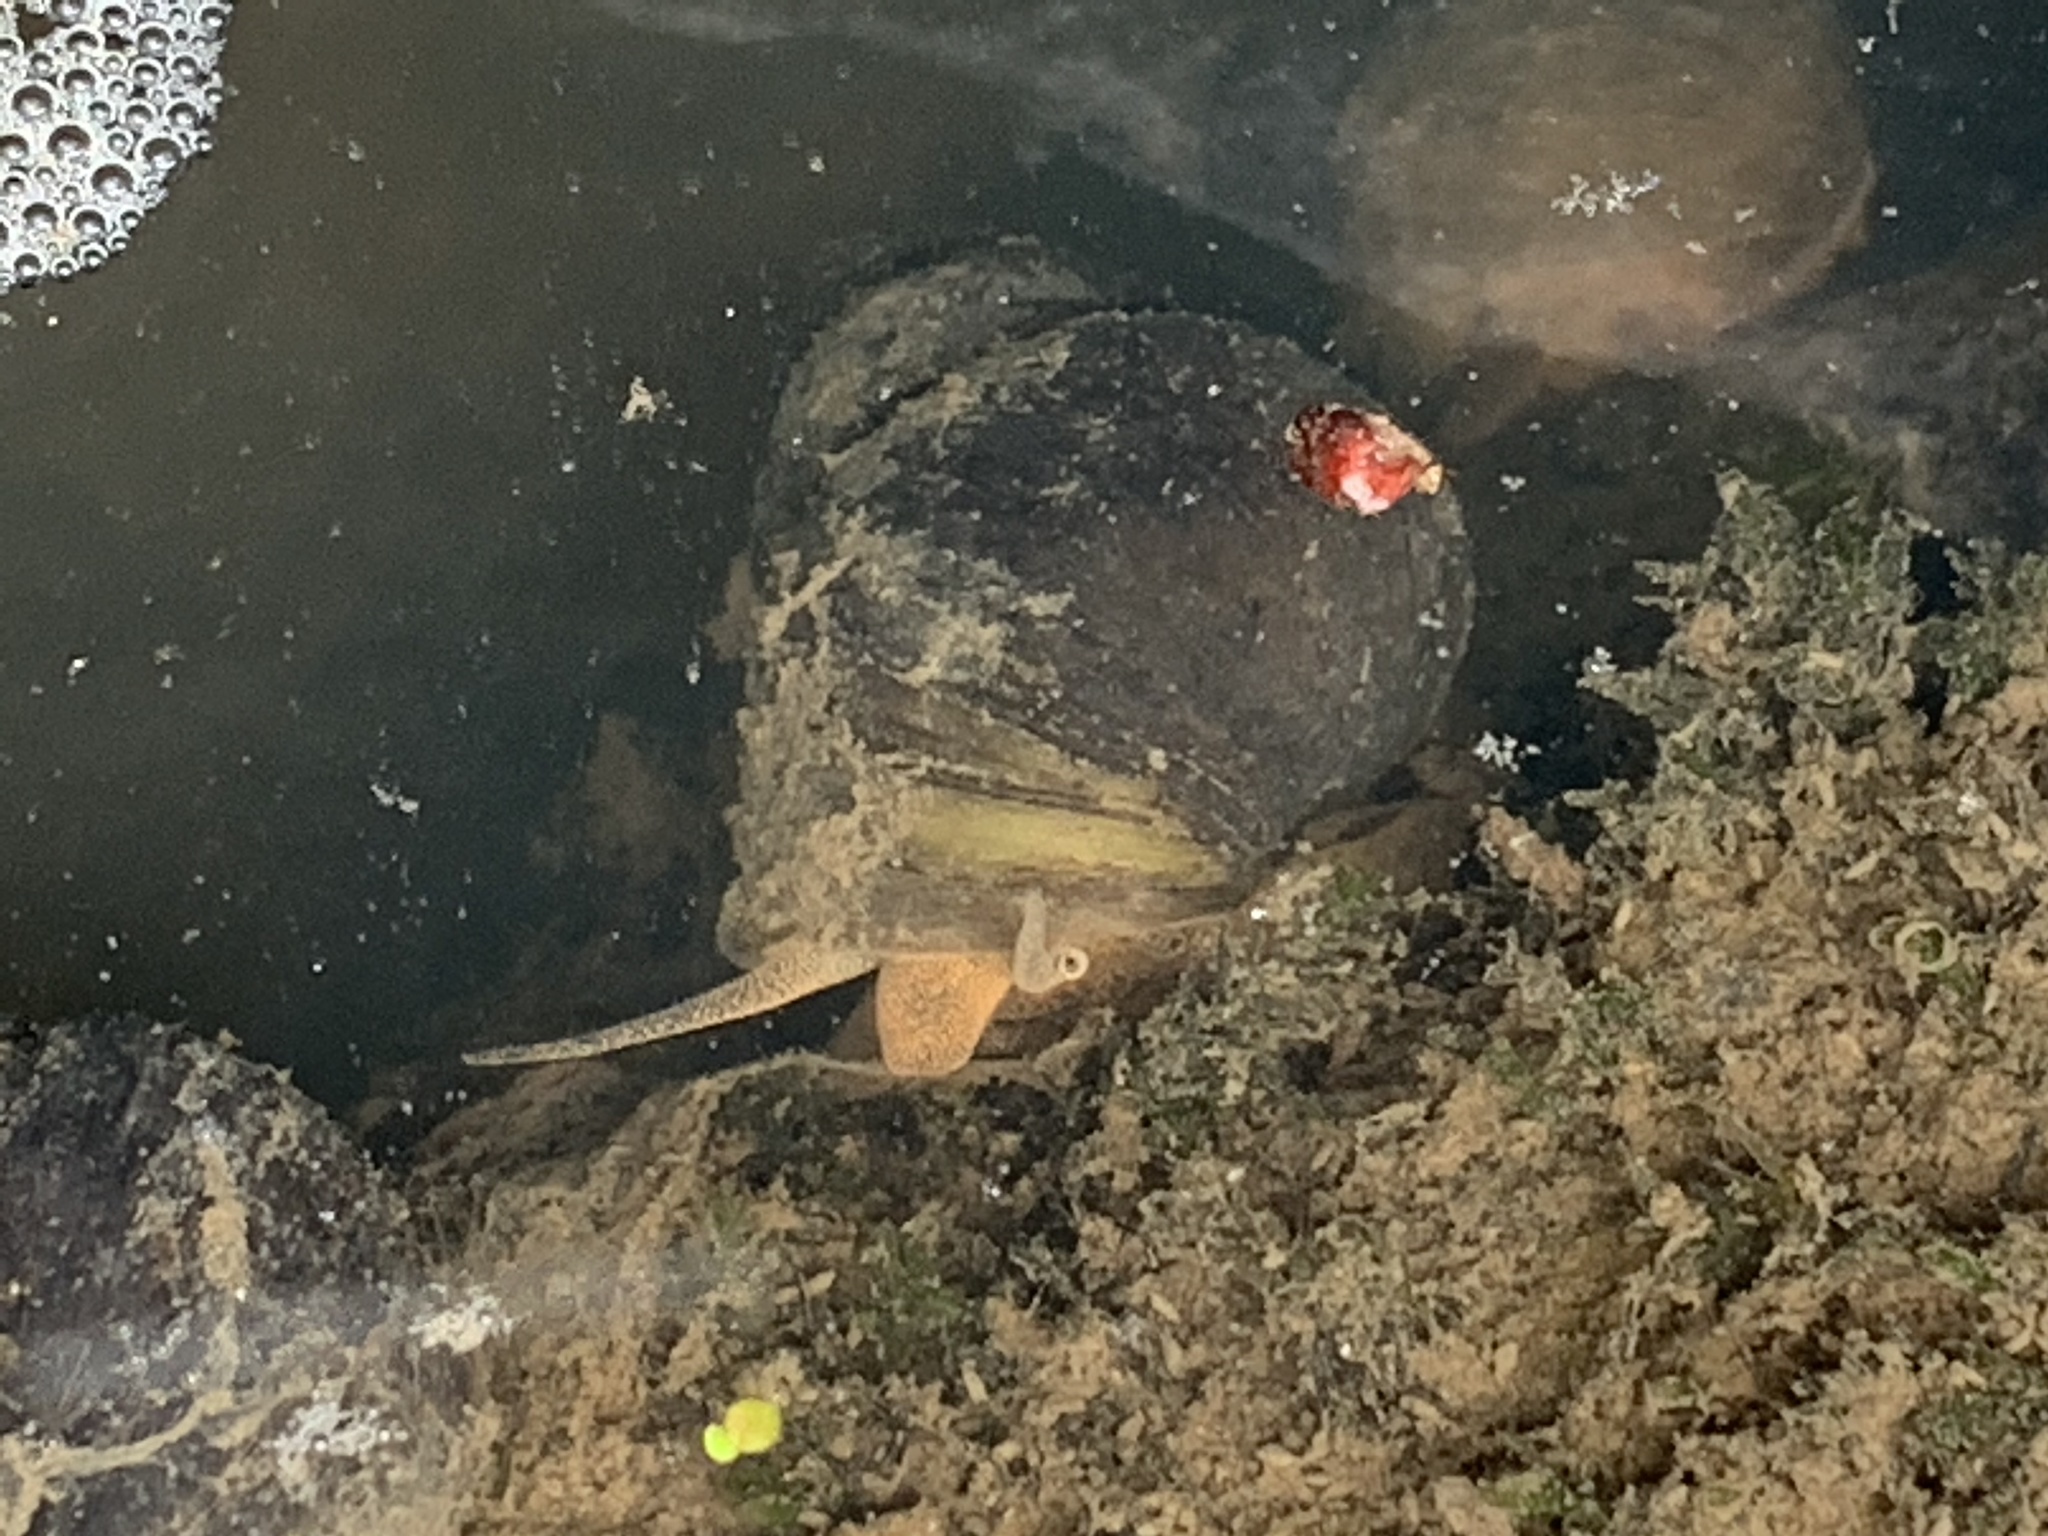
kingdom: Animalia
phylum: Mollusca
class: Gastropoda
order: Architaenioglossa
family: Viviparidae
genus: Cipangopaludina
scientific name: Cipangopaludina chinensis
